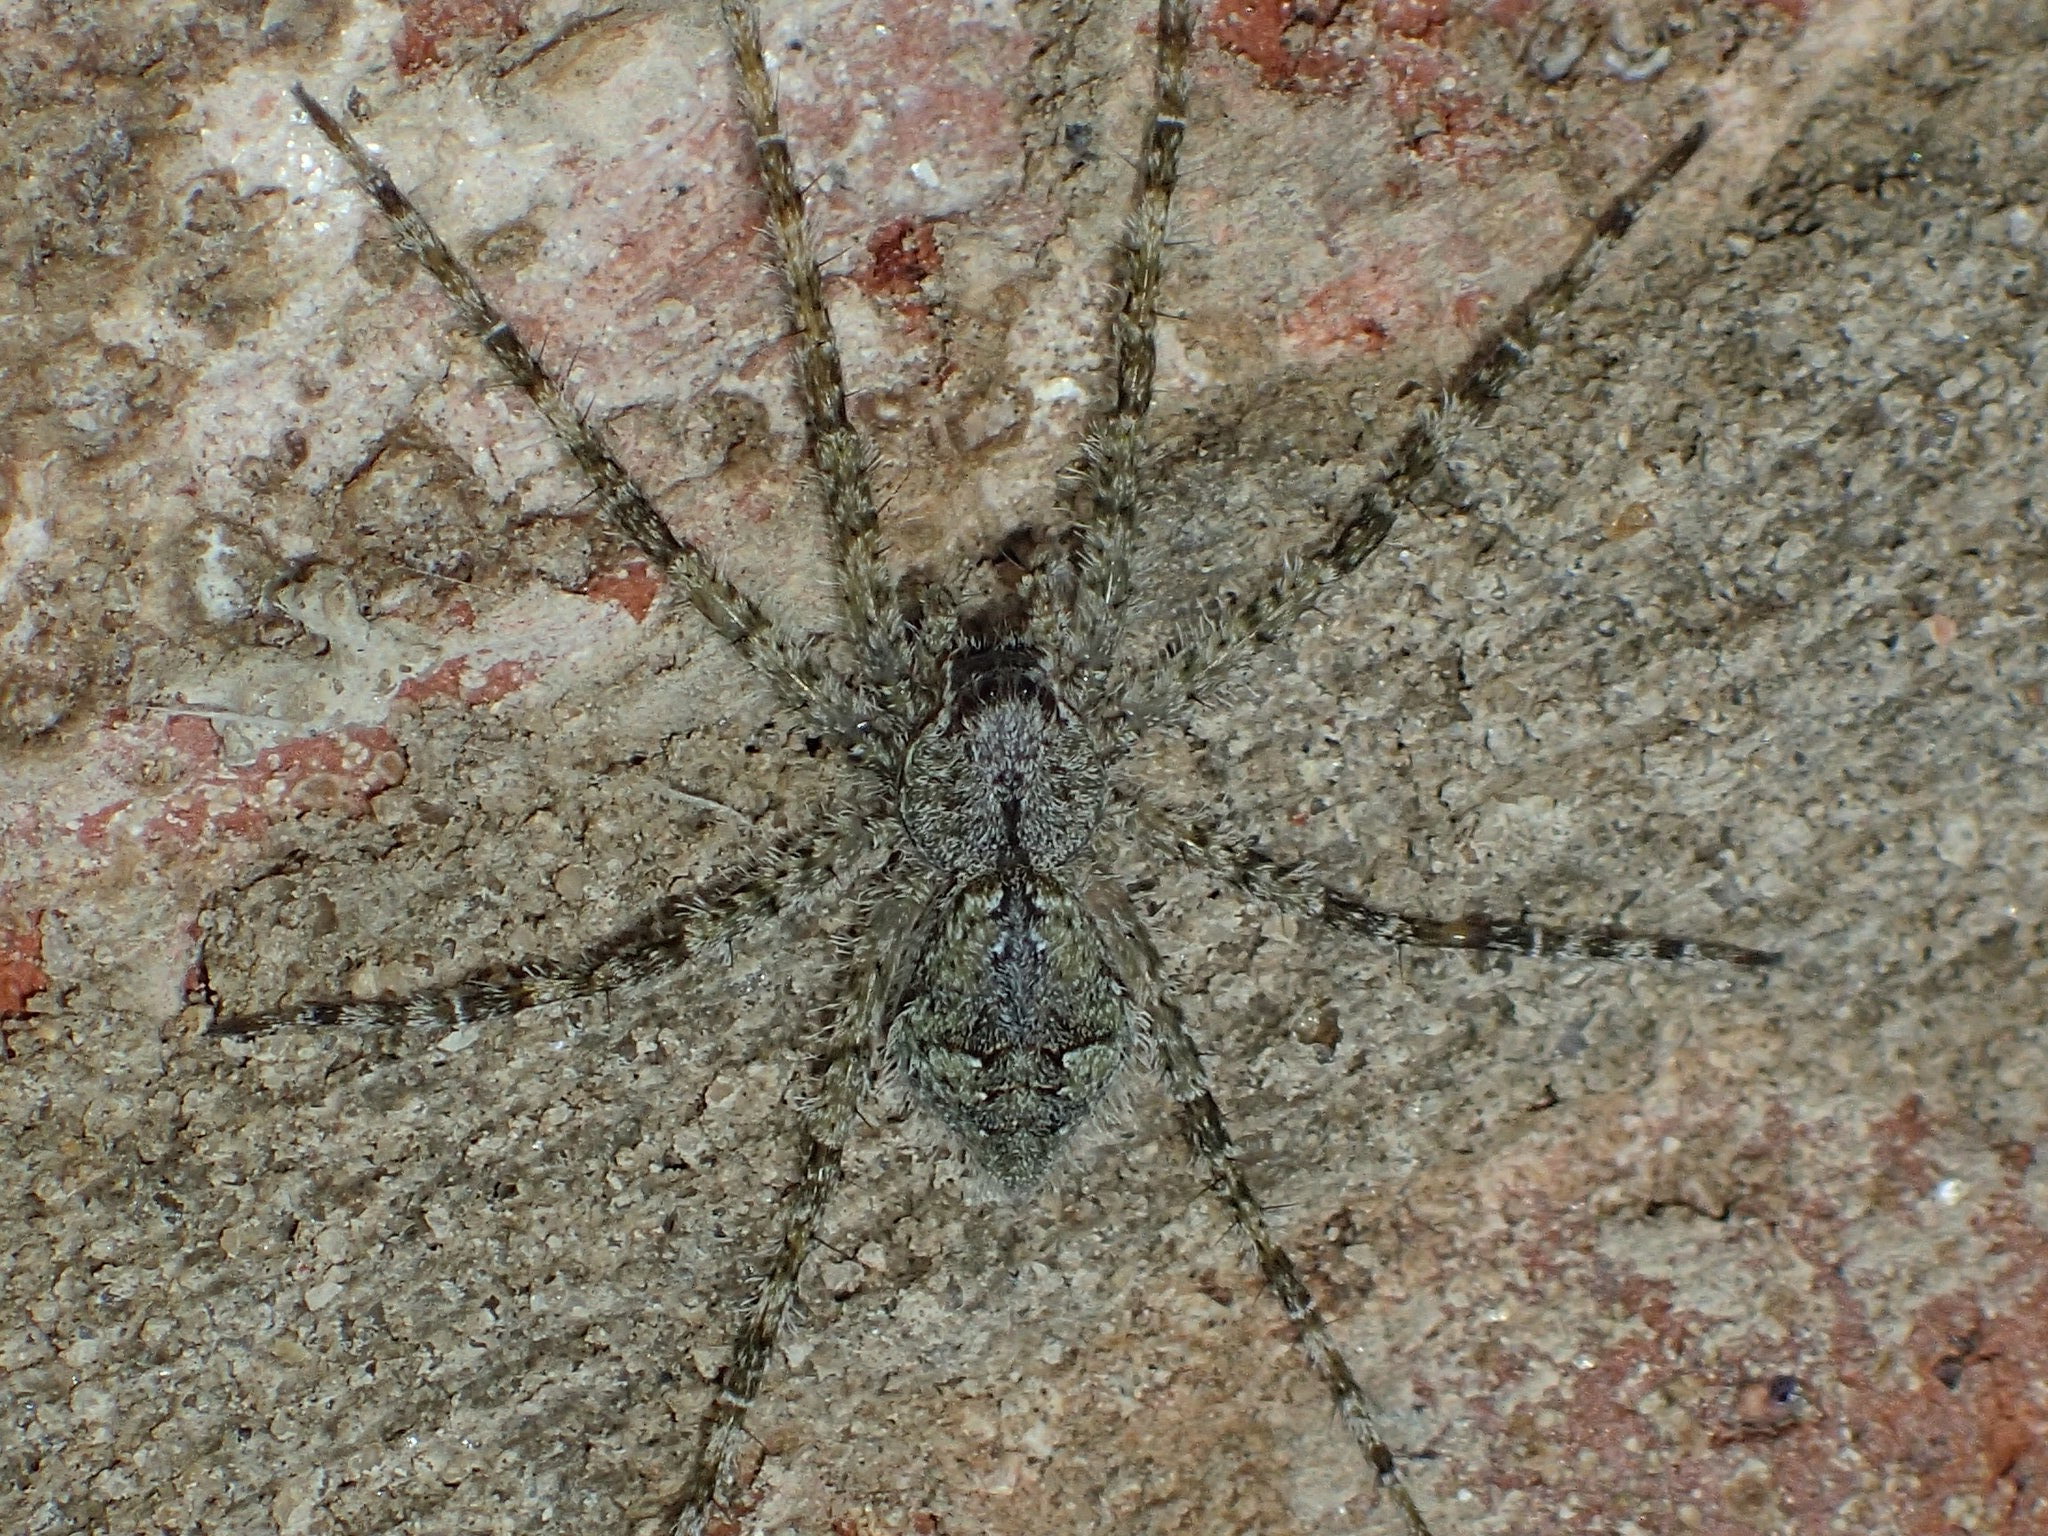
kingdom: Animalia
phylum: Arthropoda
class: Arachnida
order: Araneae
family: Pisauridae
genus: Dolomedes
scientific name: Dolomedes albineus
